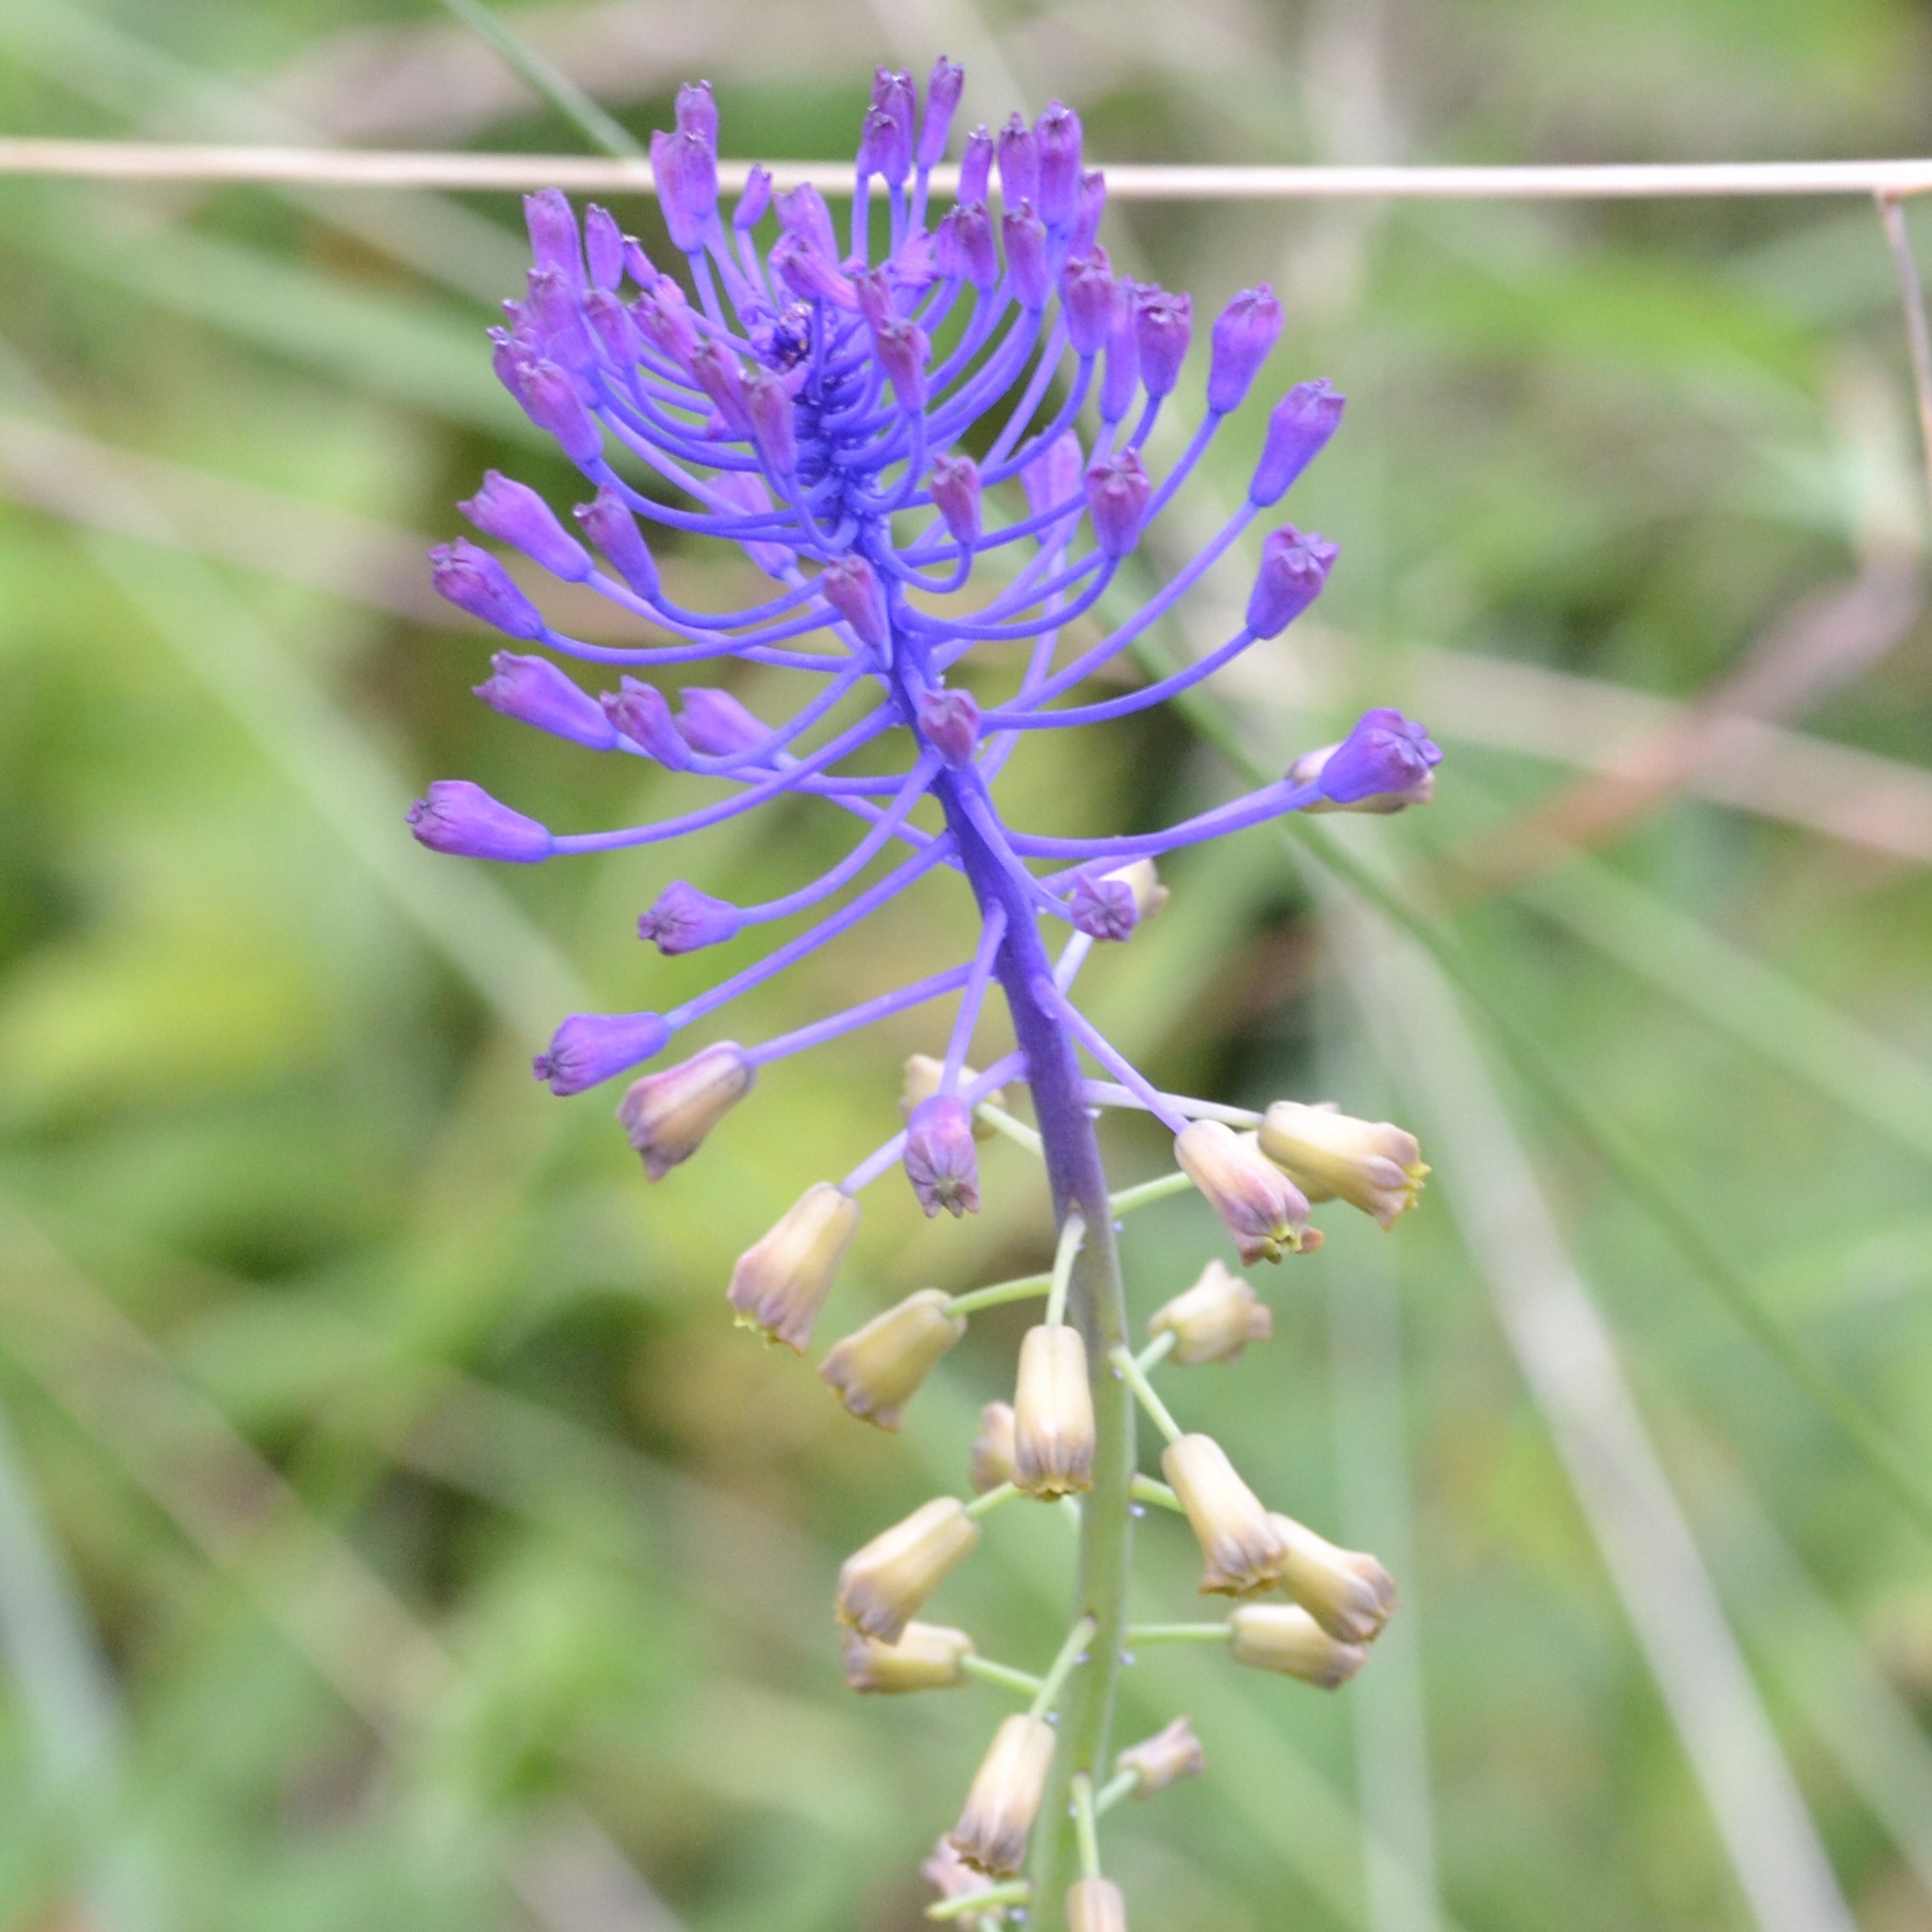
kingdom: Plantae
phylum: Tracheophyta
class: Liliopsida
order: Asparagales
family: Asparagaceae
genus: Muscari
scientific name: Muscari comosum
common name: Tassel hyacinth
